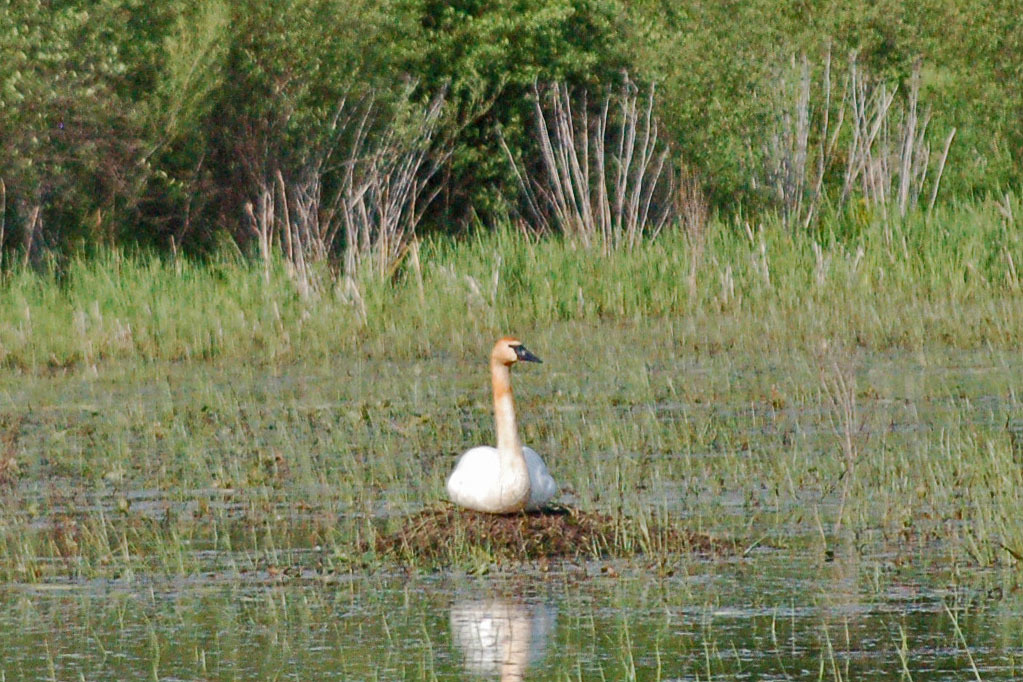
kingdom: Animalia
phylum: Chordata
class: Aves
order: Anseriformes
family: Anatidae
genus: Cygnus
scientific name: Cygnus buccinator
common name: Trumpeter swan
